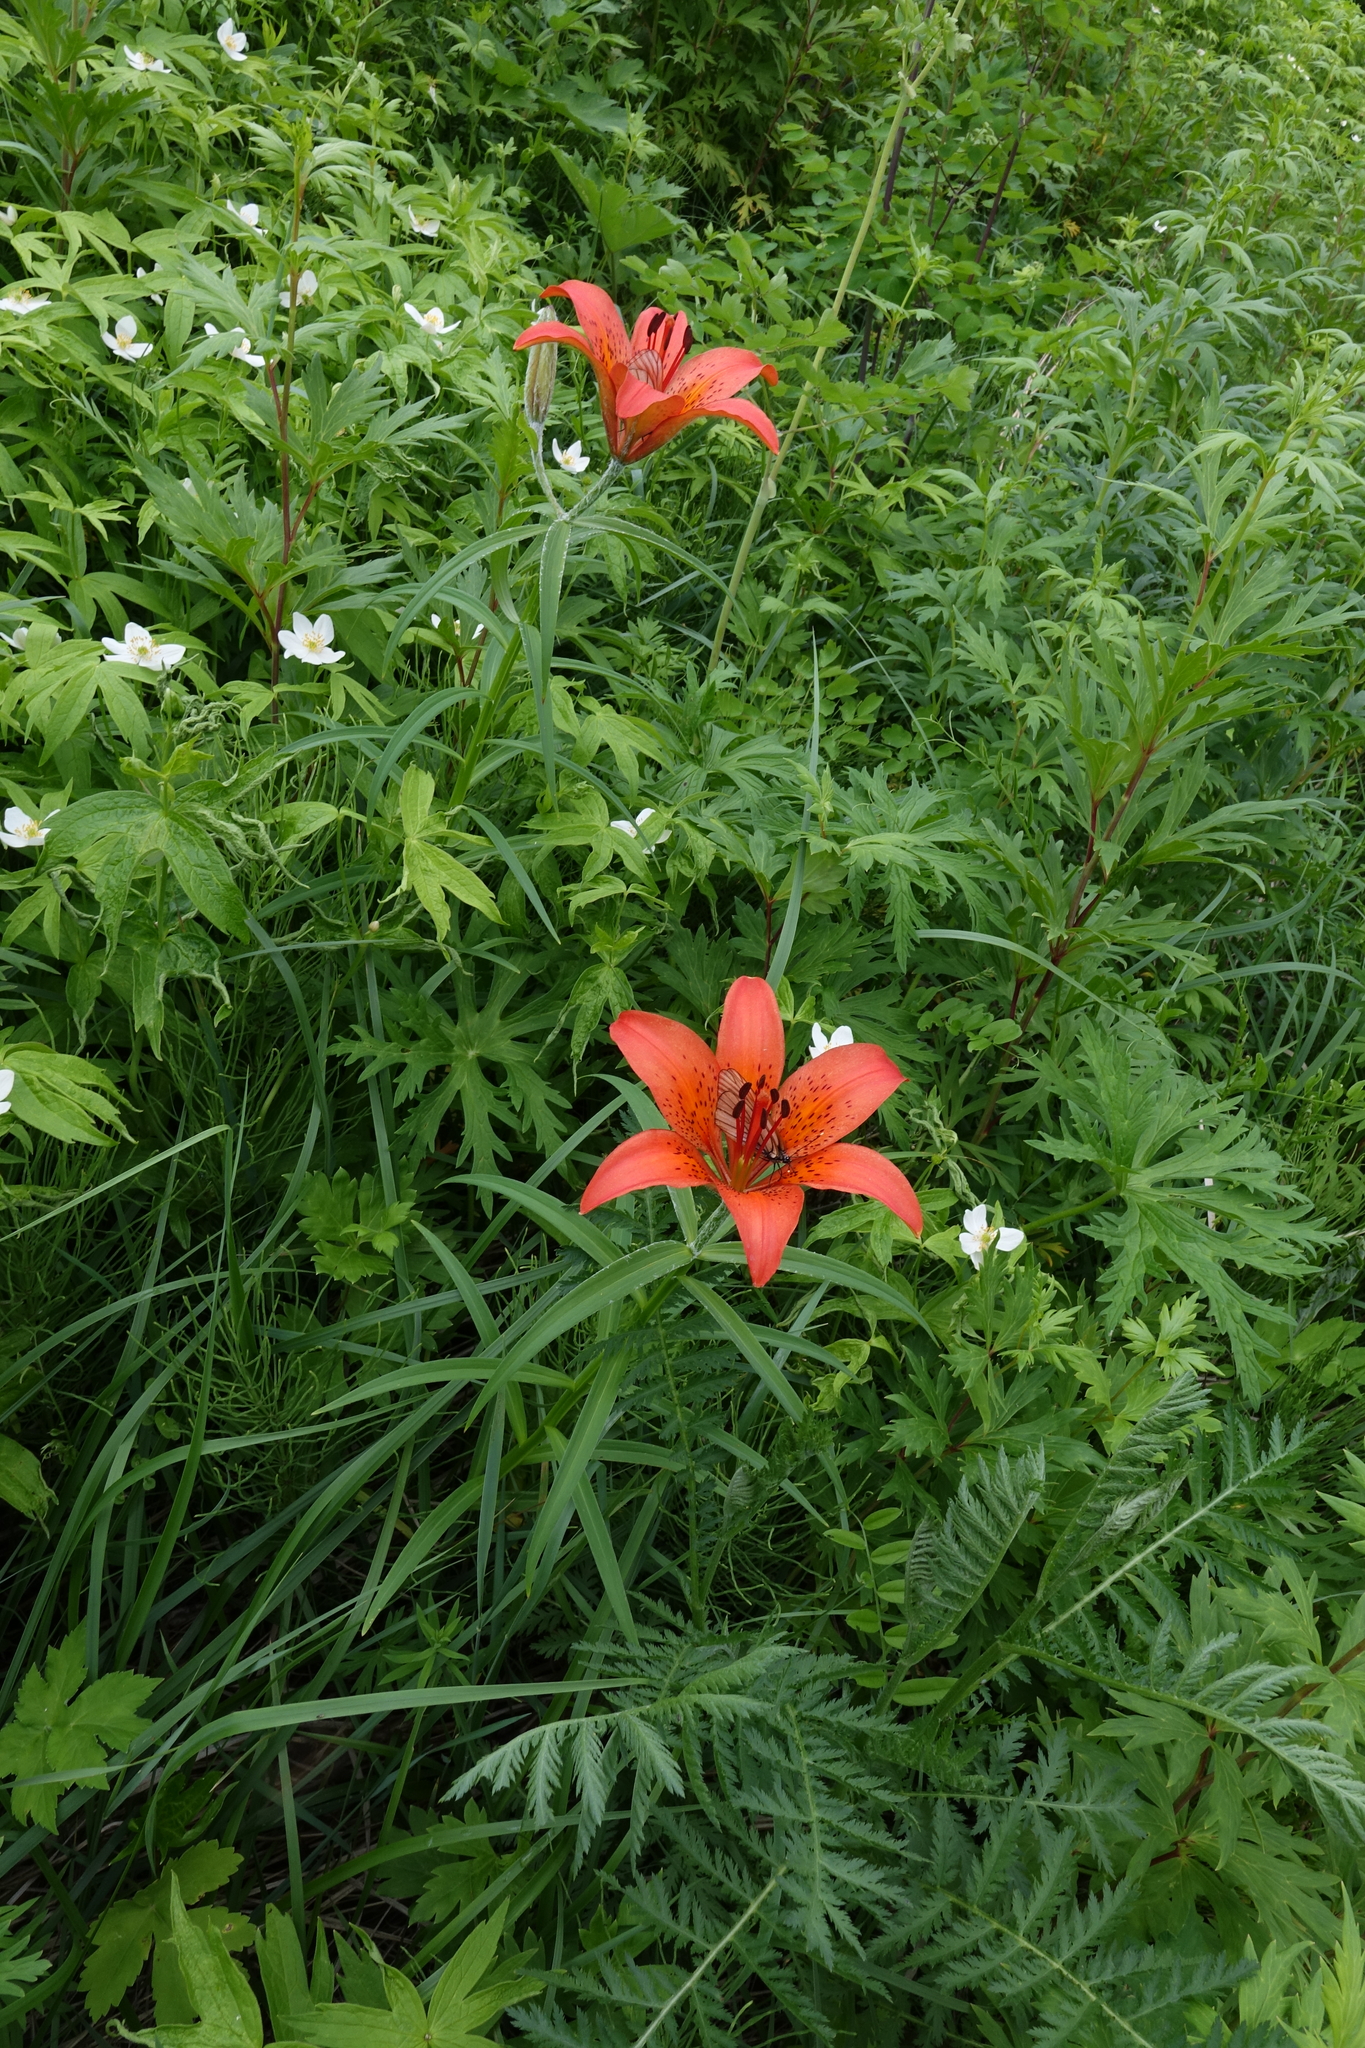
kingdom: Plantae
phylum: Tracheophyta
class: Liliopsida
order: Liliales
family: Liliaceae
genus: Lilium
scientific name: Lilium pensylvanicum
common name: Candlestick lily
